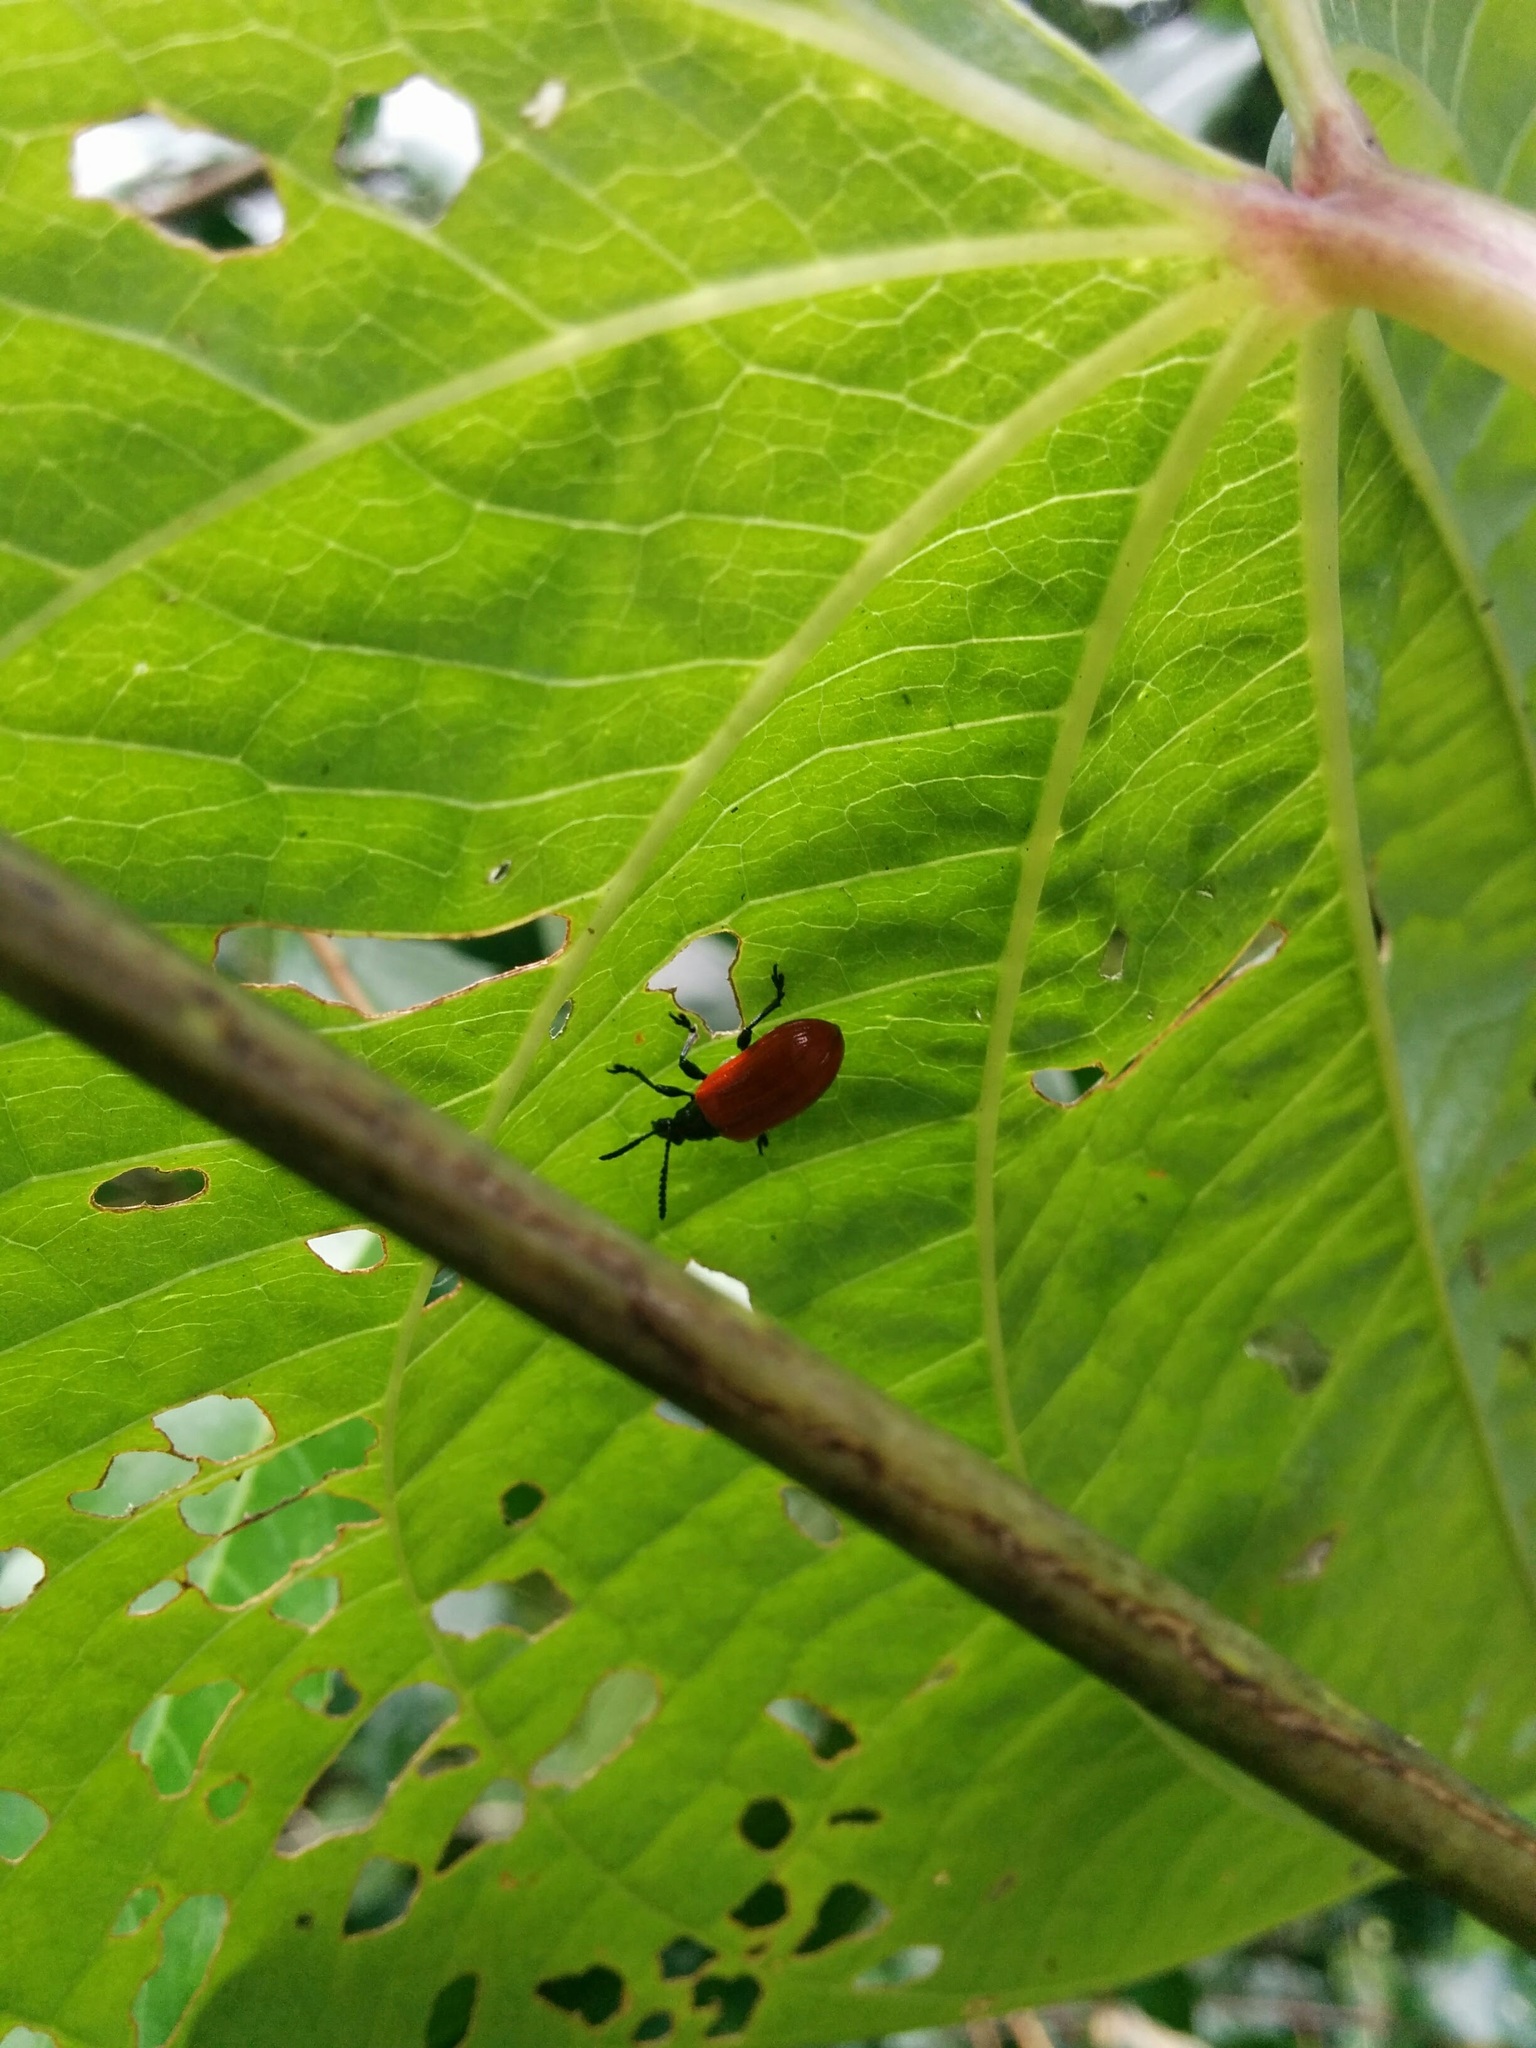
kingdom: Animalia
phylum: Arthropoda
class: Insecta
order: Coleoptera
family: Chrysomelidae
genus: Lilioceris
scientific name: Lilioceris cheni
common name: Leaf beetle
